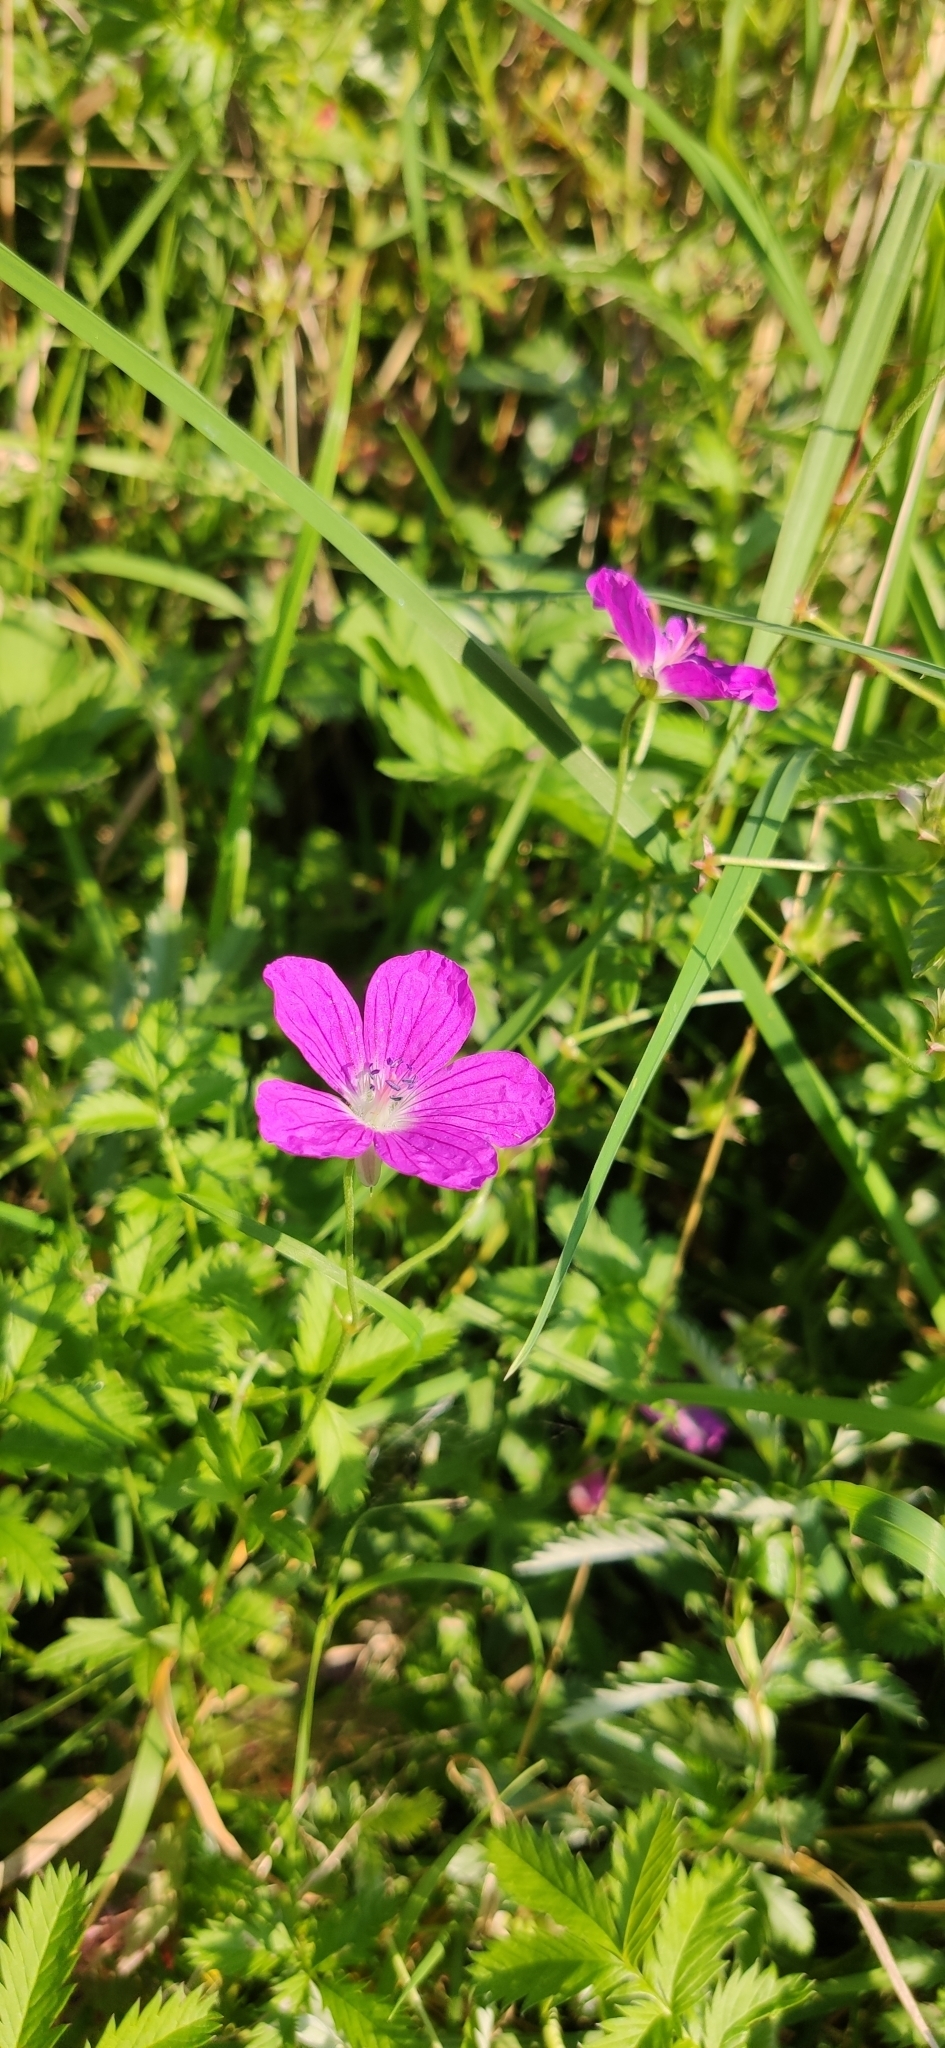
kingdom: Plantae
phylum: Tracheophyta
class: Magnoliopsida
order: Geraniales
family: Geraniaceae
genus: Geranium
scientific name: Geranium palustre
